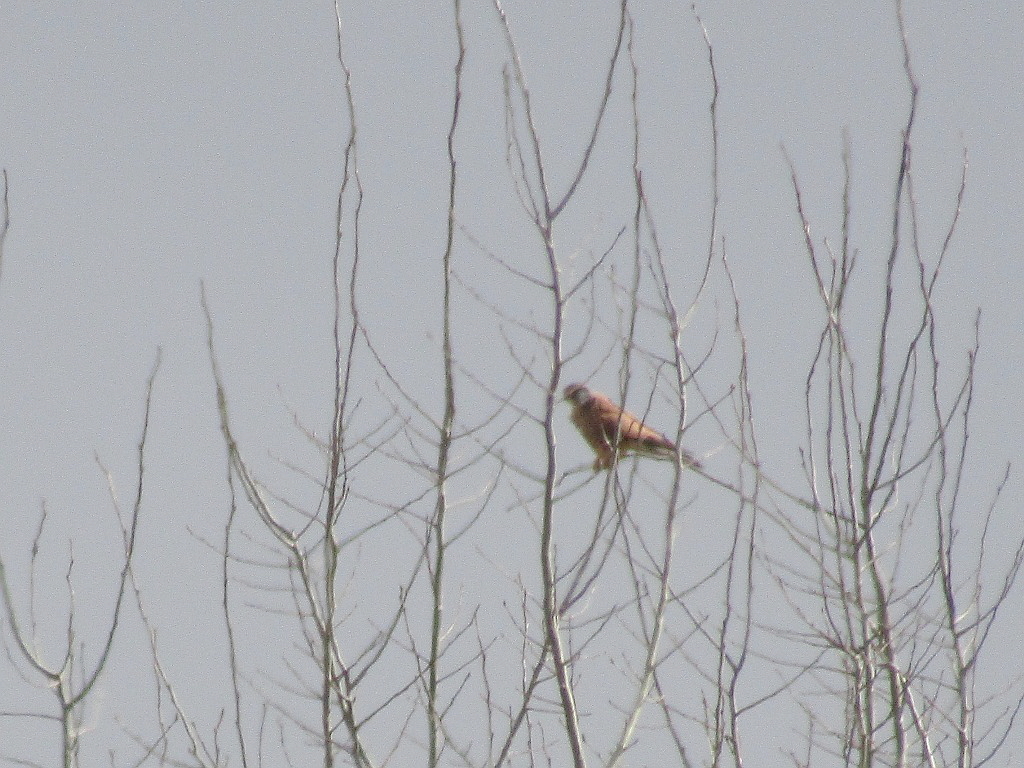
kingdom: Animalia
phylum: Chordata
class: Aves
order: Falconiformes
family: Falconidae
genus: Falco
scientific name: Falco tinnunculus
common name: Common kestrel
